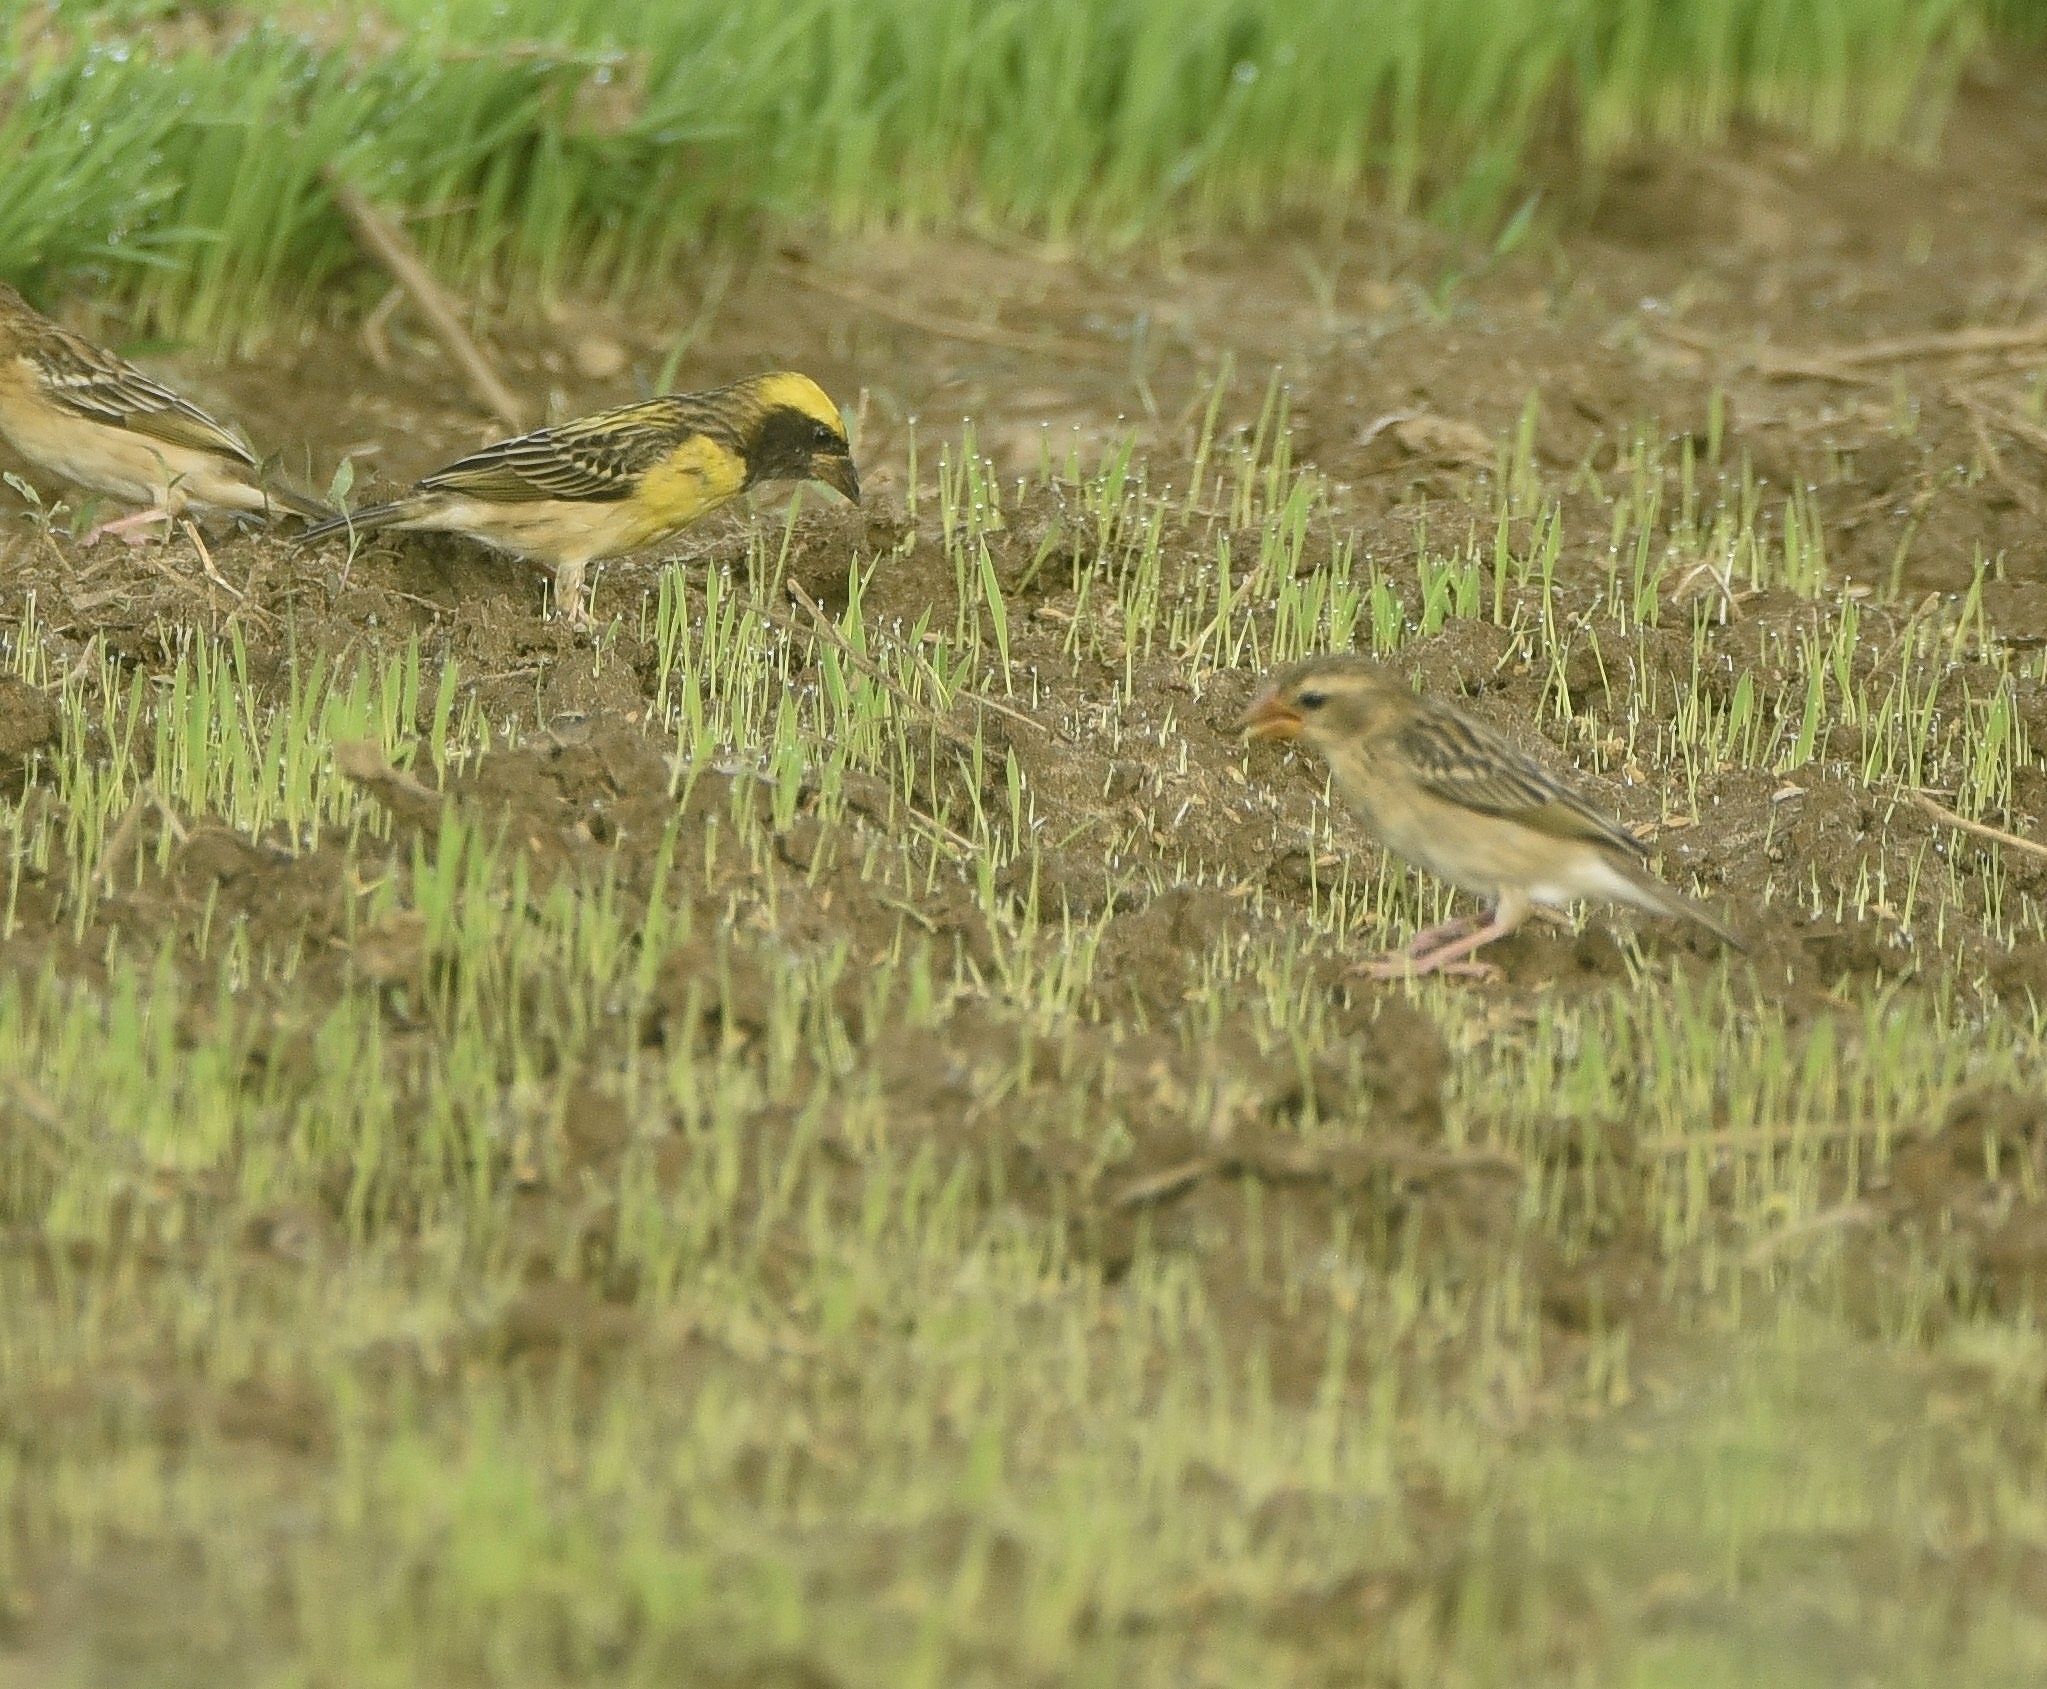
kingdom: Animalia
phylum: Chordata
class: Aves
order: Passeriformes
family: Ploceidae
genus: Ploceus
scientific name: Ploceus philippinus
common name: Baya weaver
